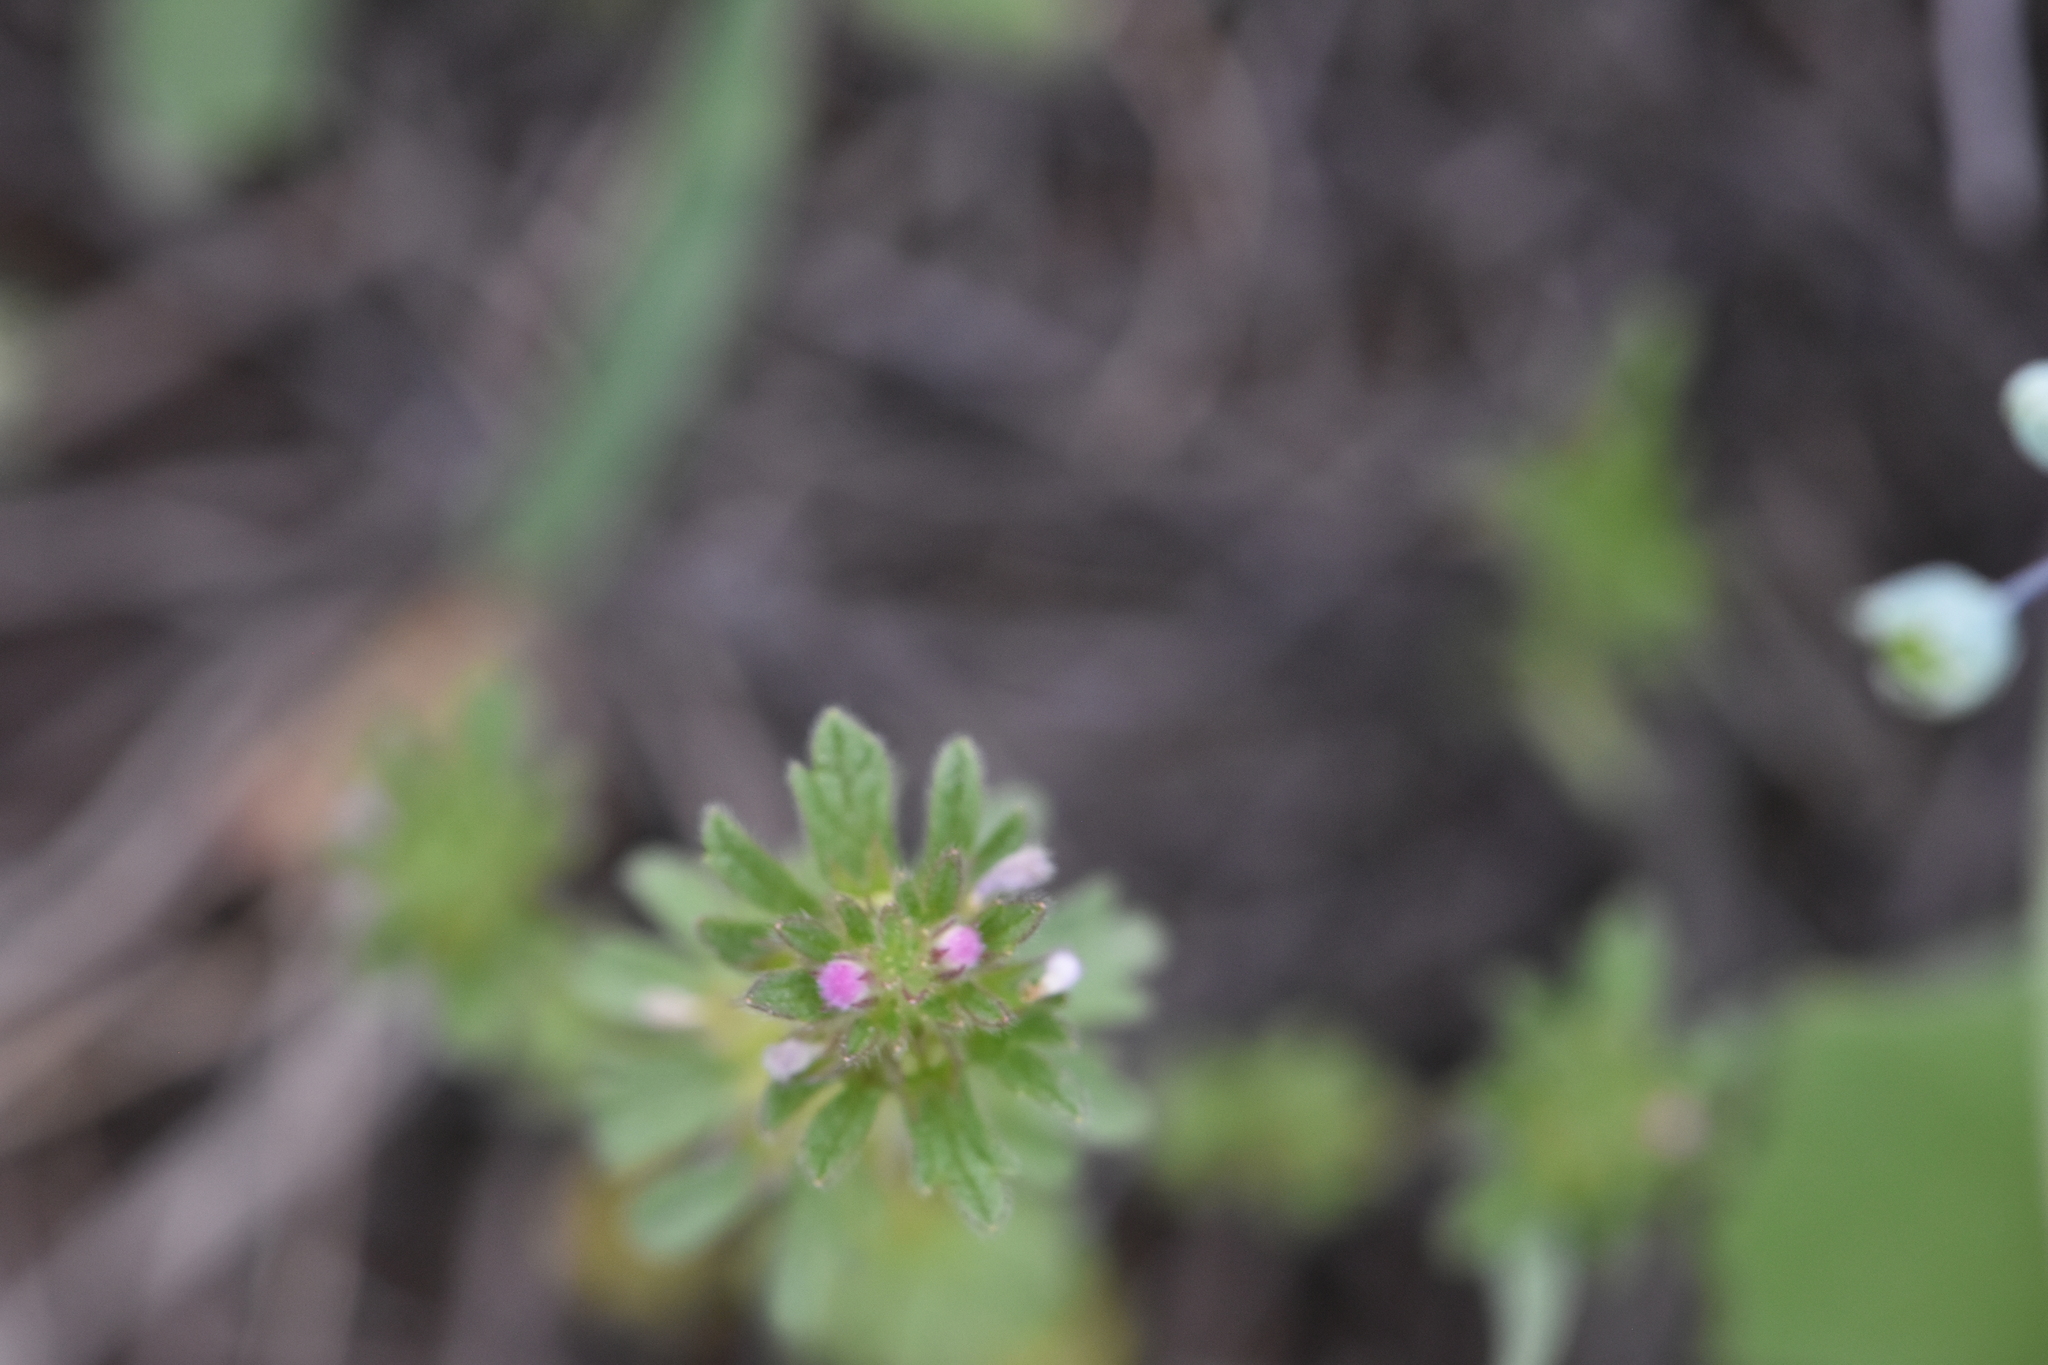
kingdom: Plantae
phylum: Tracheophyta
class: Magnoliopsida
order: Lamiales
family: Lamiaceae
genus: Lamium
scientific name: Lamium amplexicaule
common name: Henbit dead-nettle
